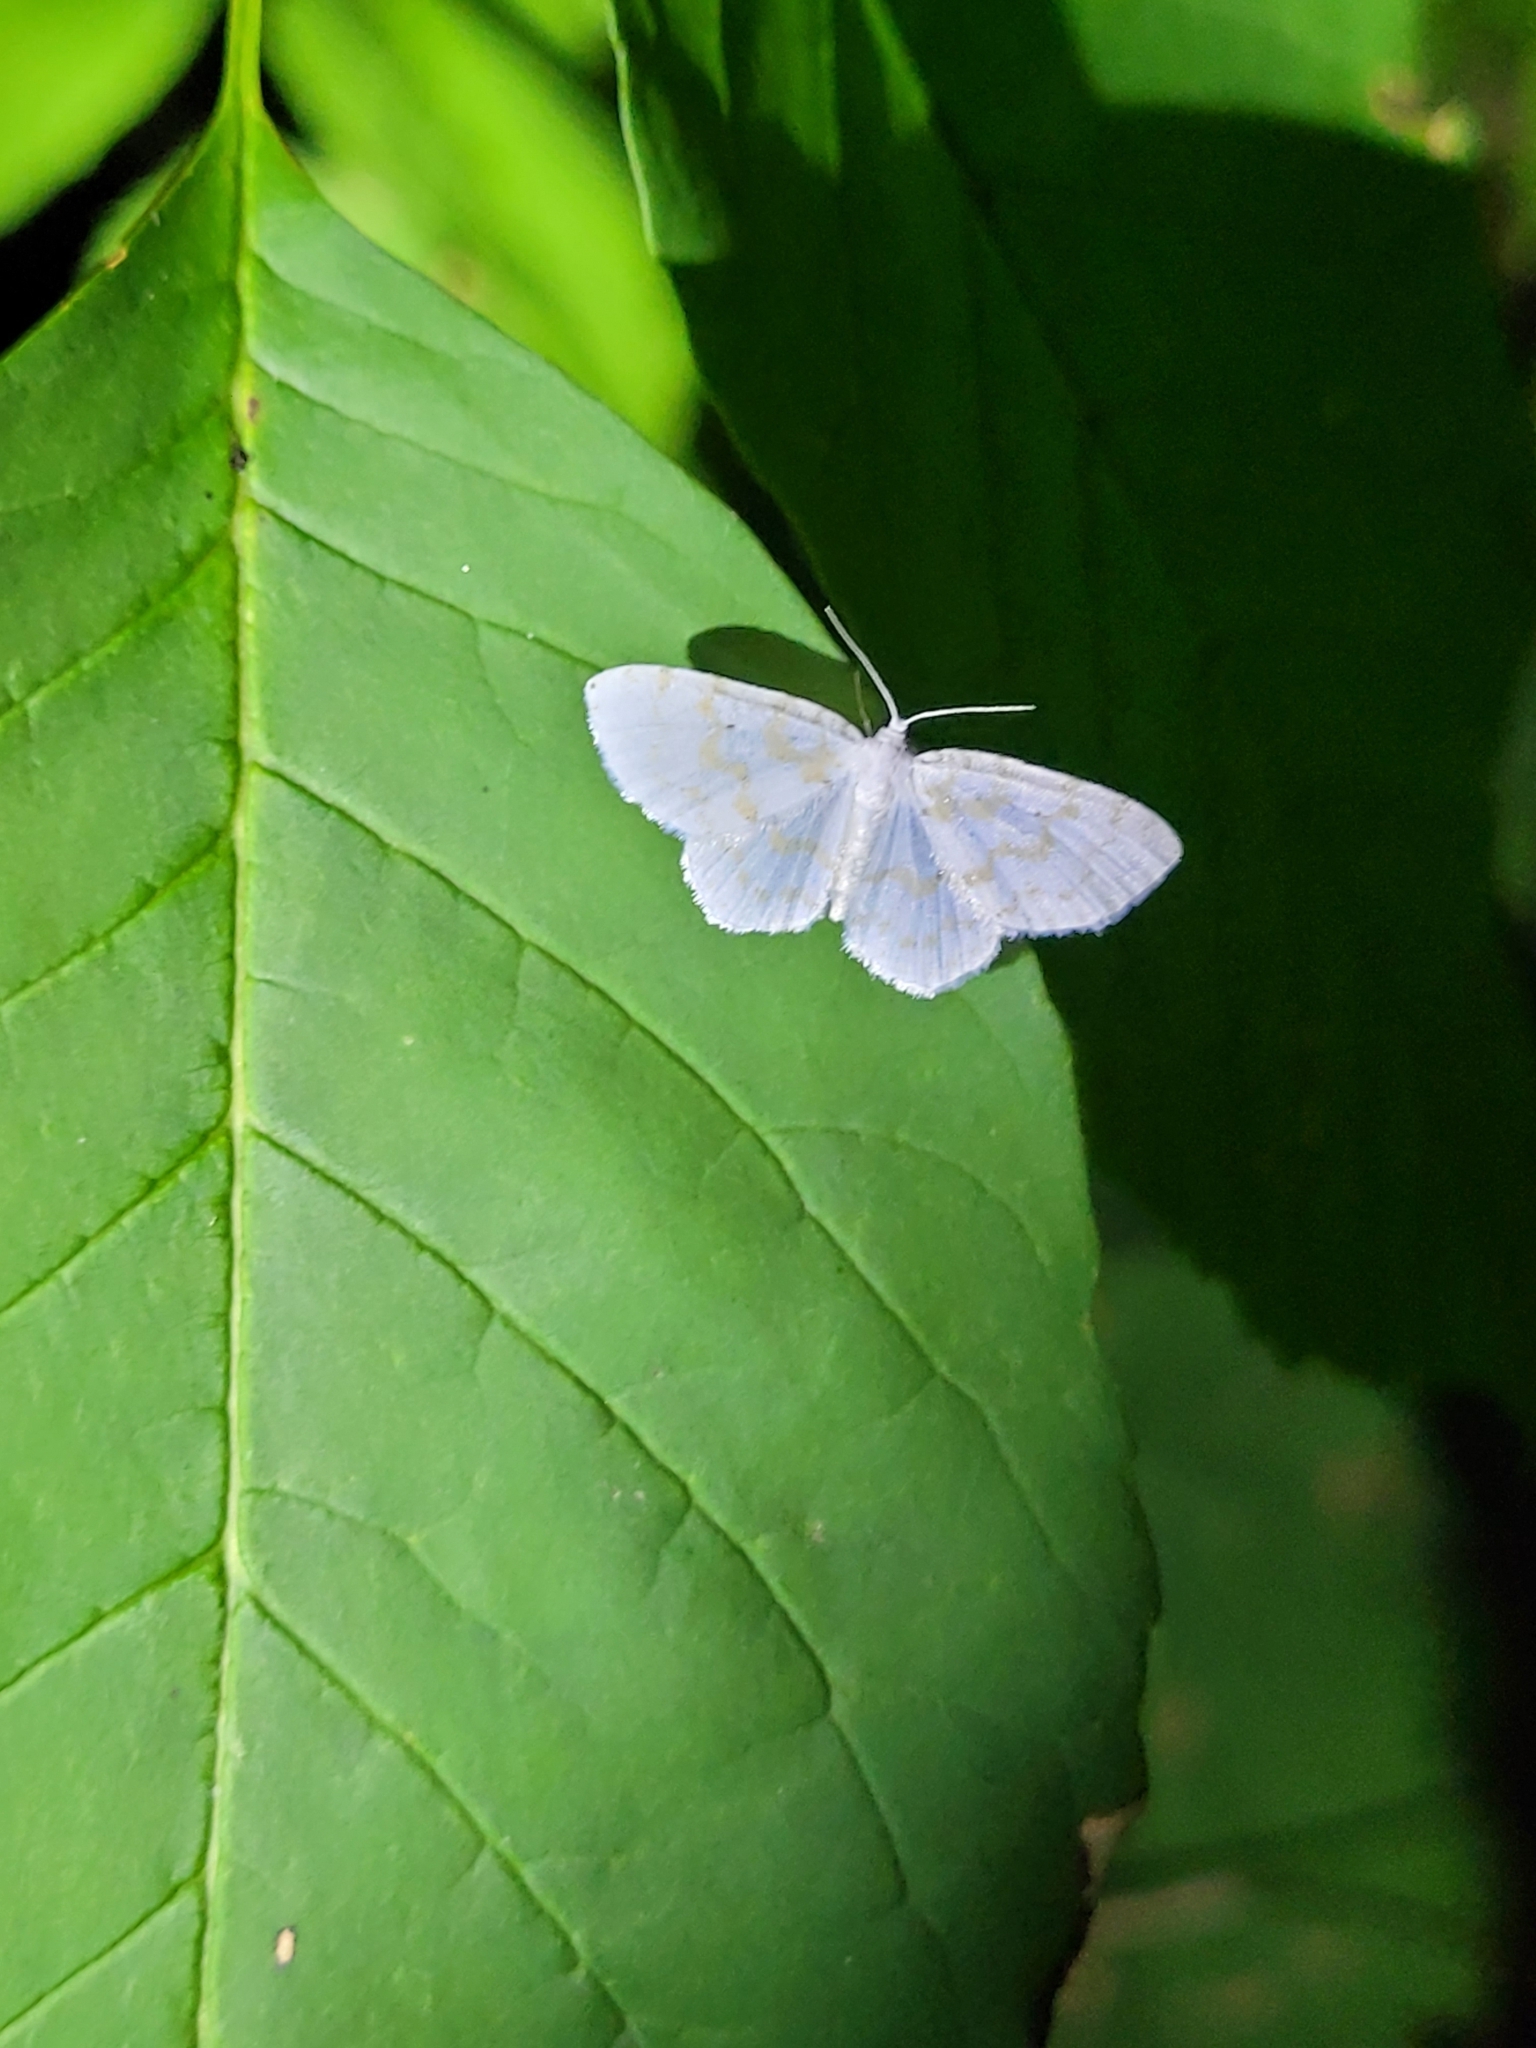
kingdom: Animalia
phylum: Arthropoda
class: Insecta
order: Lepidoptera
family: Geometridae
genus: Hydrelia
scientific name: Hydrelia albifera
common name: Fragile white carpet
